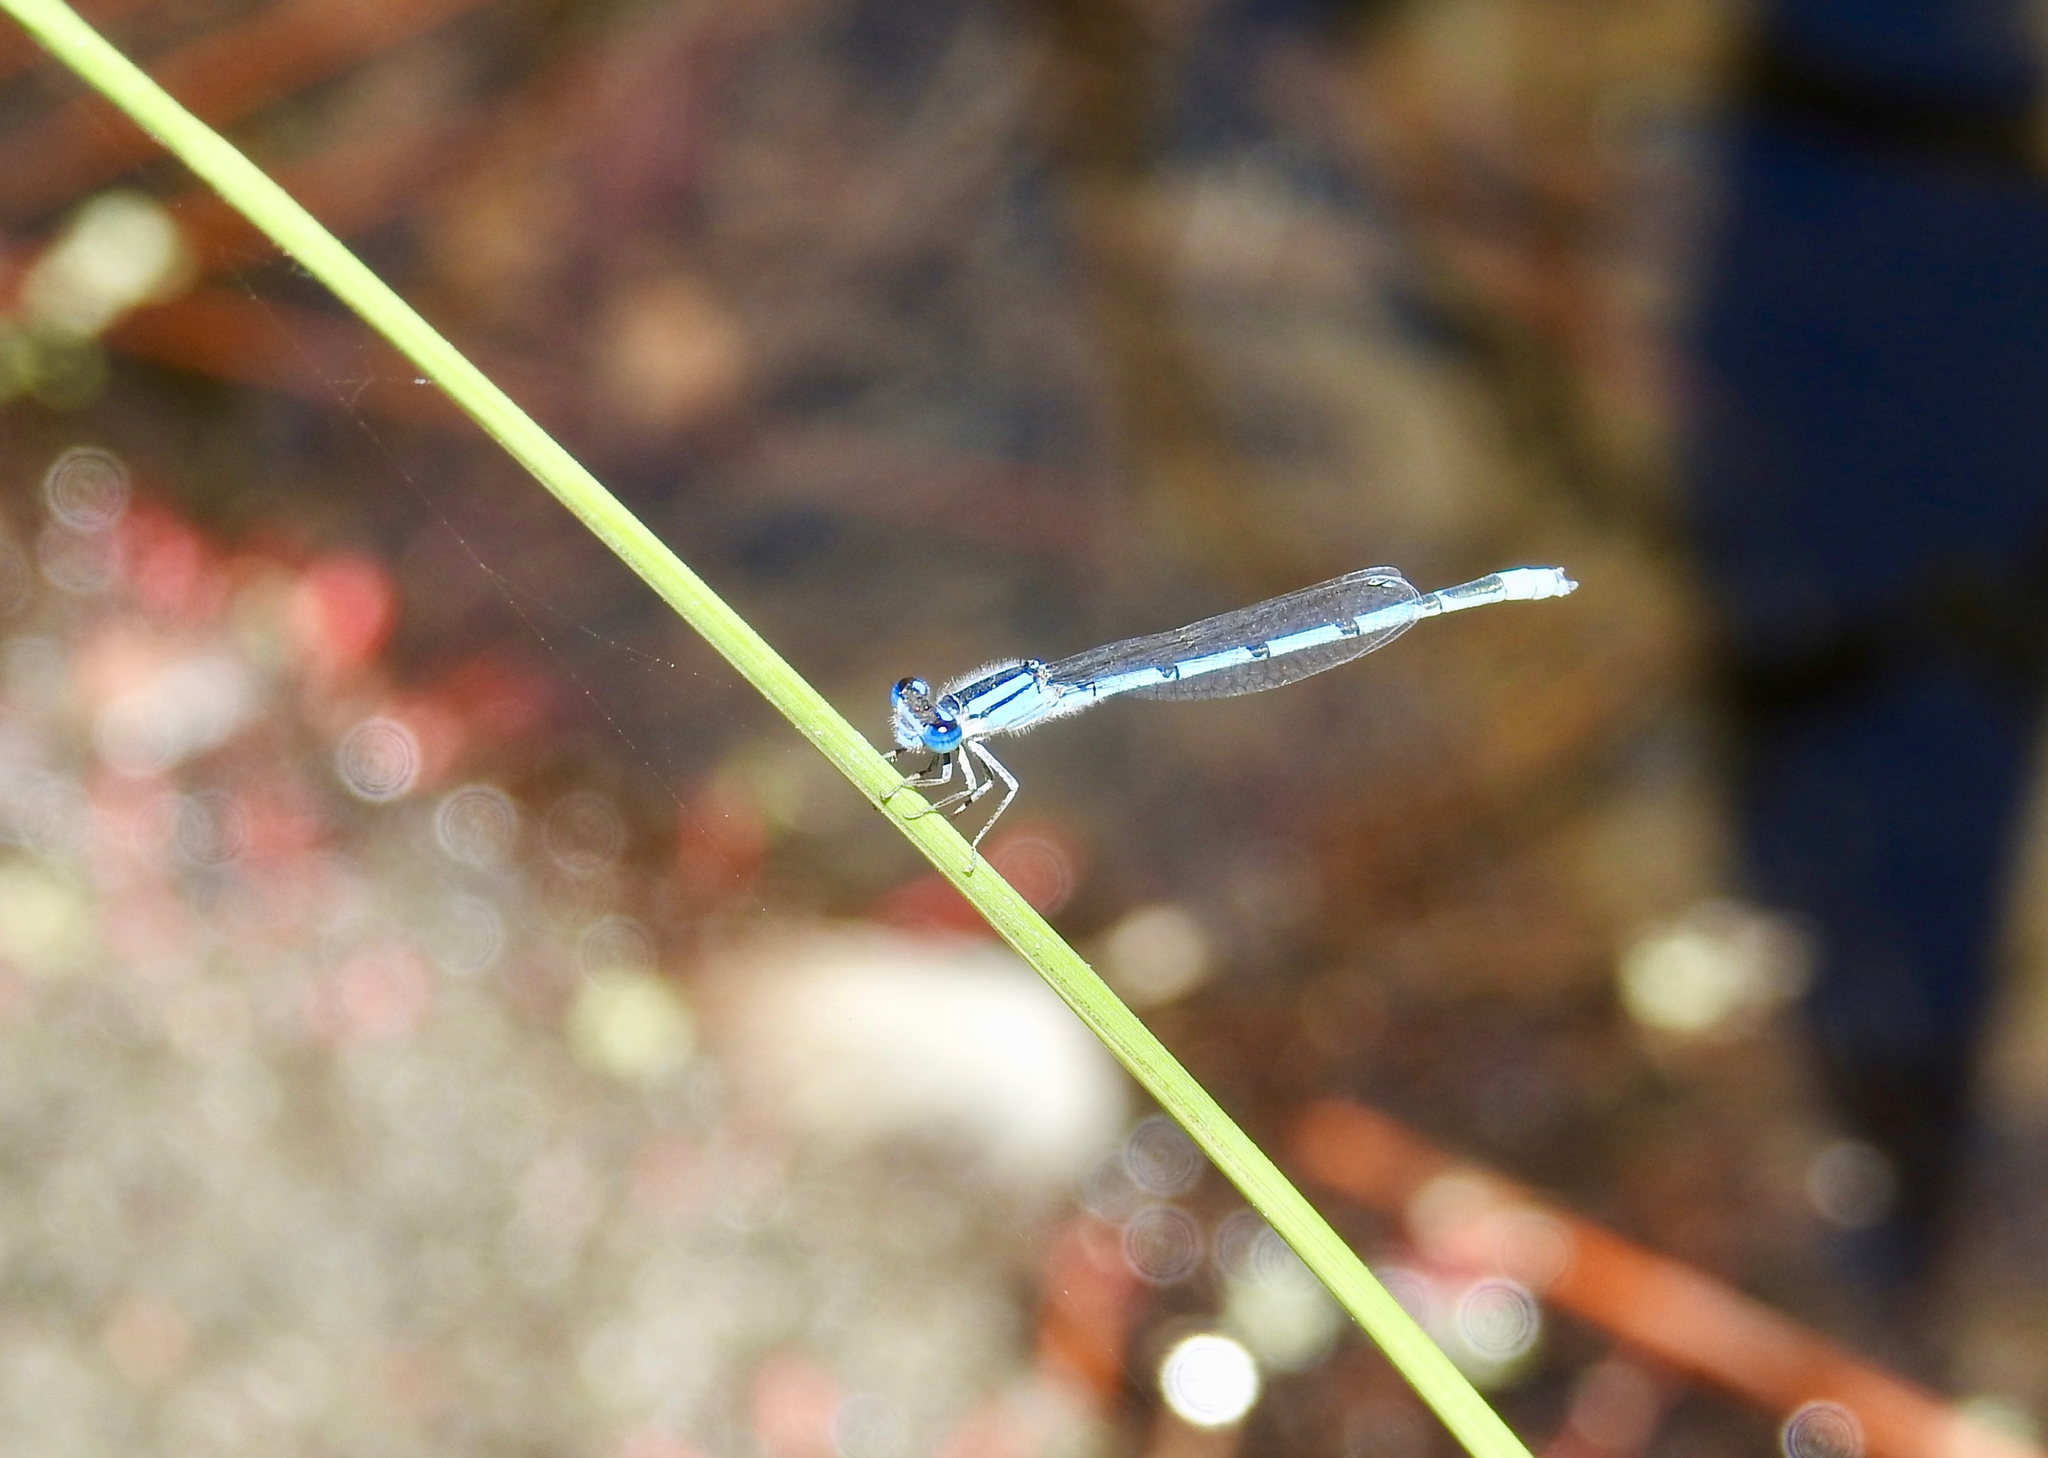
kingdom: Animalia
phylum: Arthropoda
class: Insecta
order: Odonata
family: Coenagrionidae
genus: Enallagma
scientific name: Enallagma civile
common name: Damselfly
